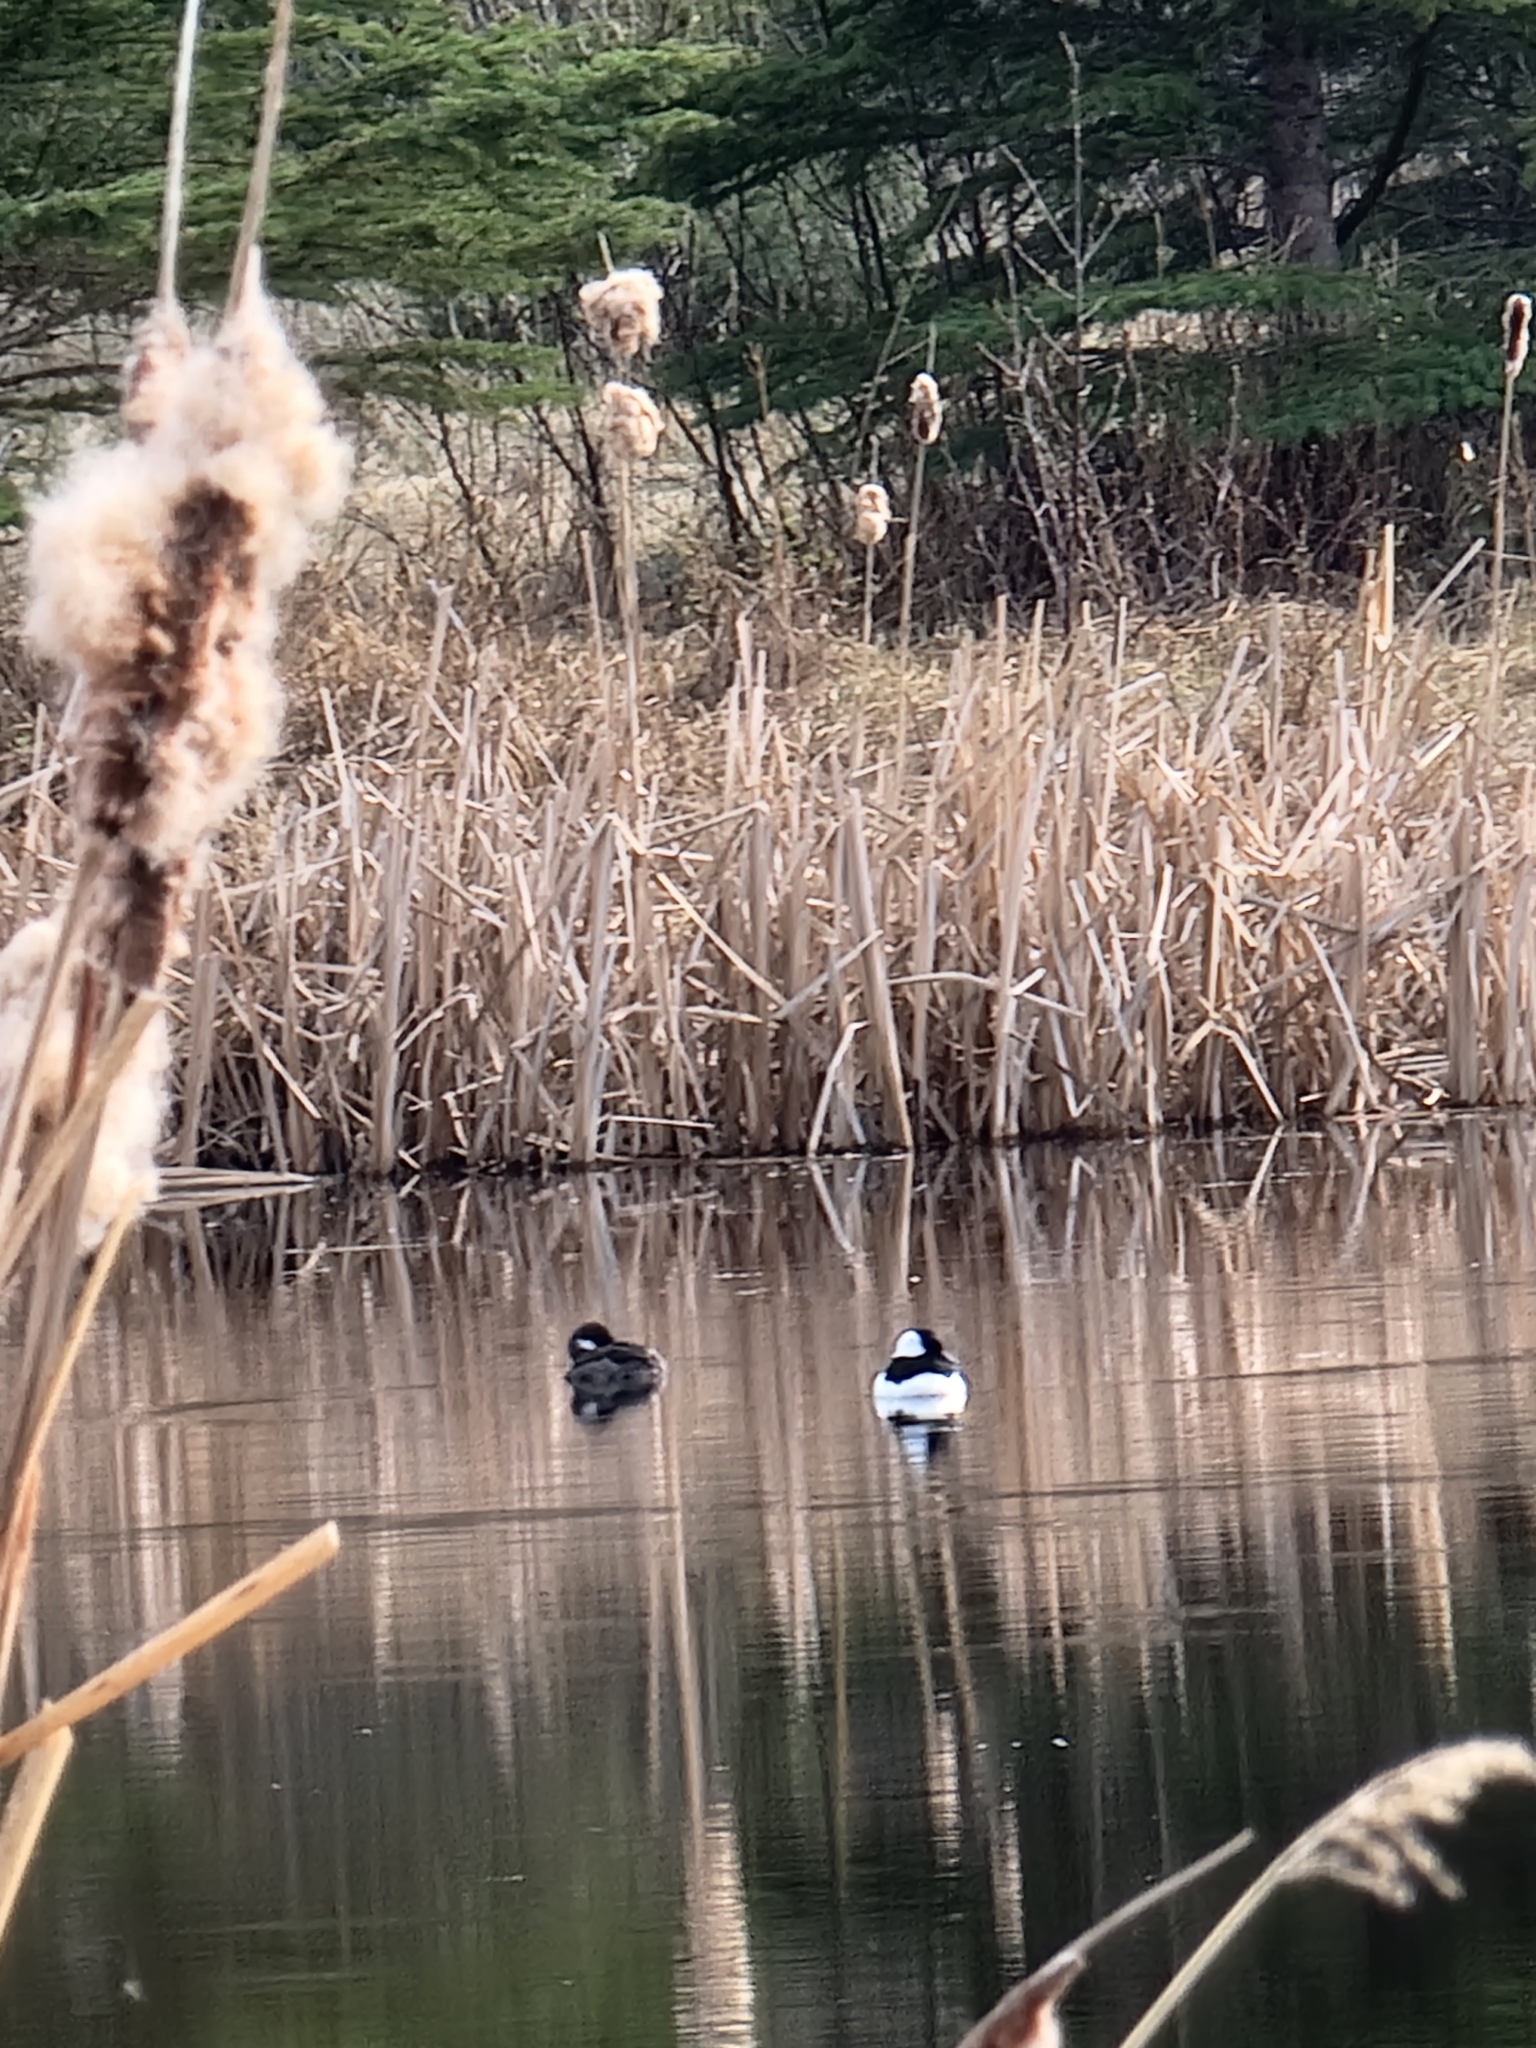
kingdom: Animalia
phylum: Chordata
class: Aves
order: Anseriformes
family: Anatidae
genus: Bucephala
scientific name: Bucephala albeola
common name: Bufflehead
